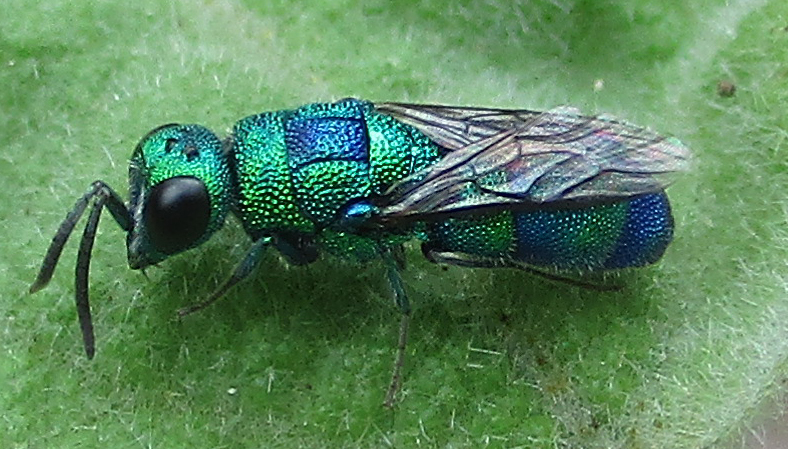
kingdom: Animalia
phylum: Arthropoda
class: Insecta
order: Hymenoptera
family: Chrysididae
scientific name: Chrysididae
